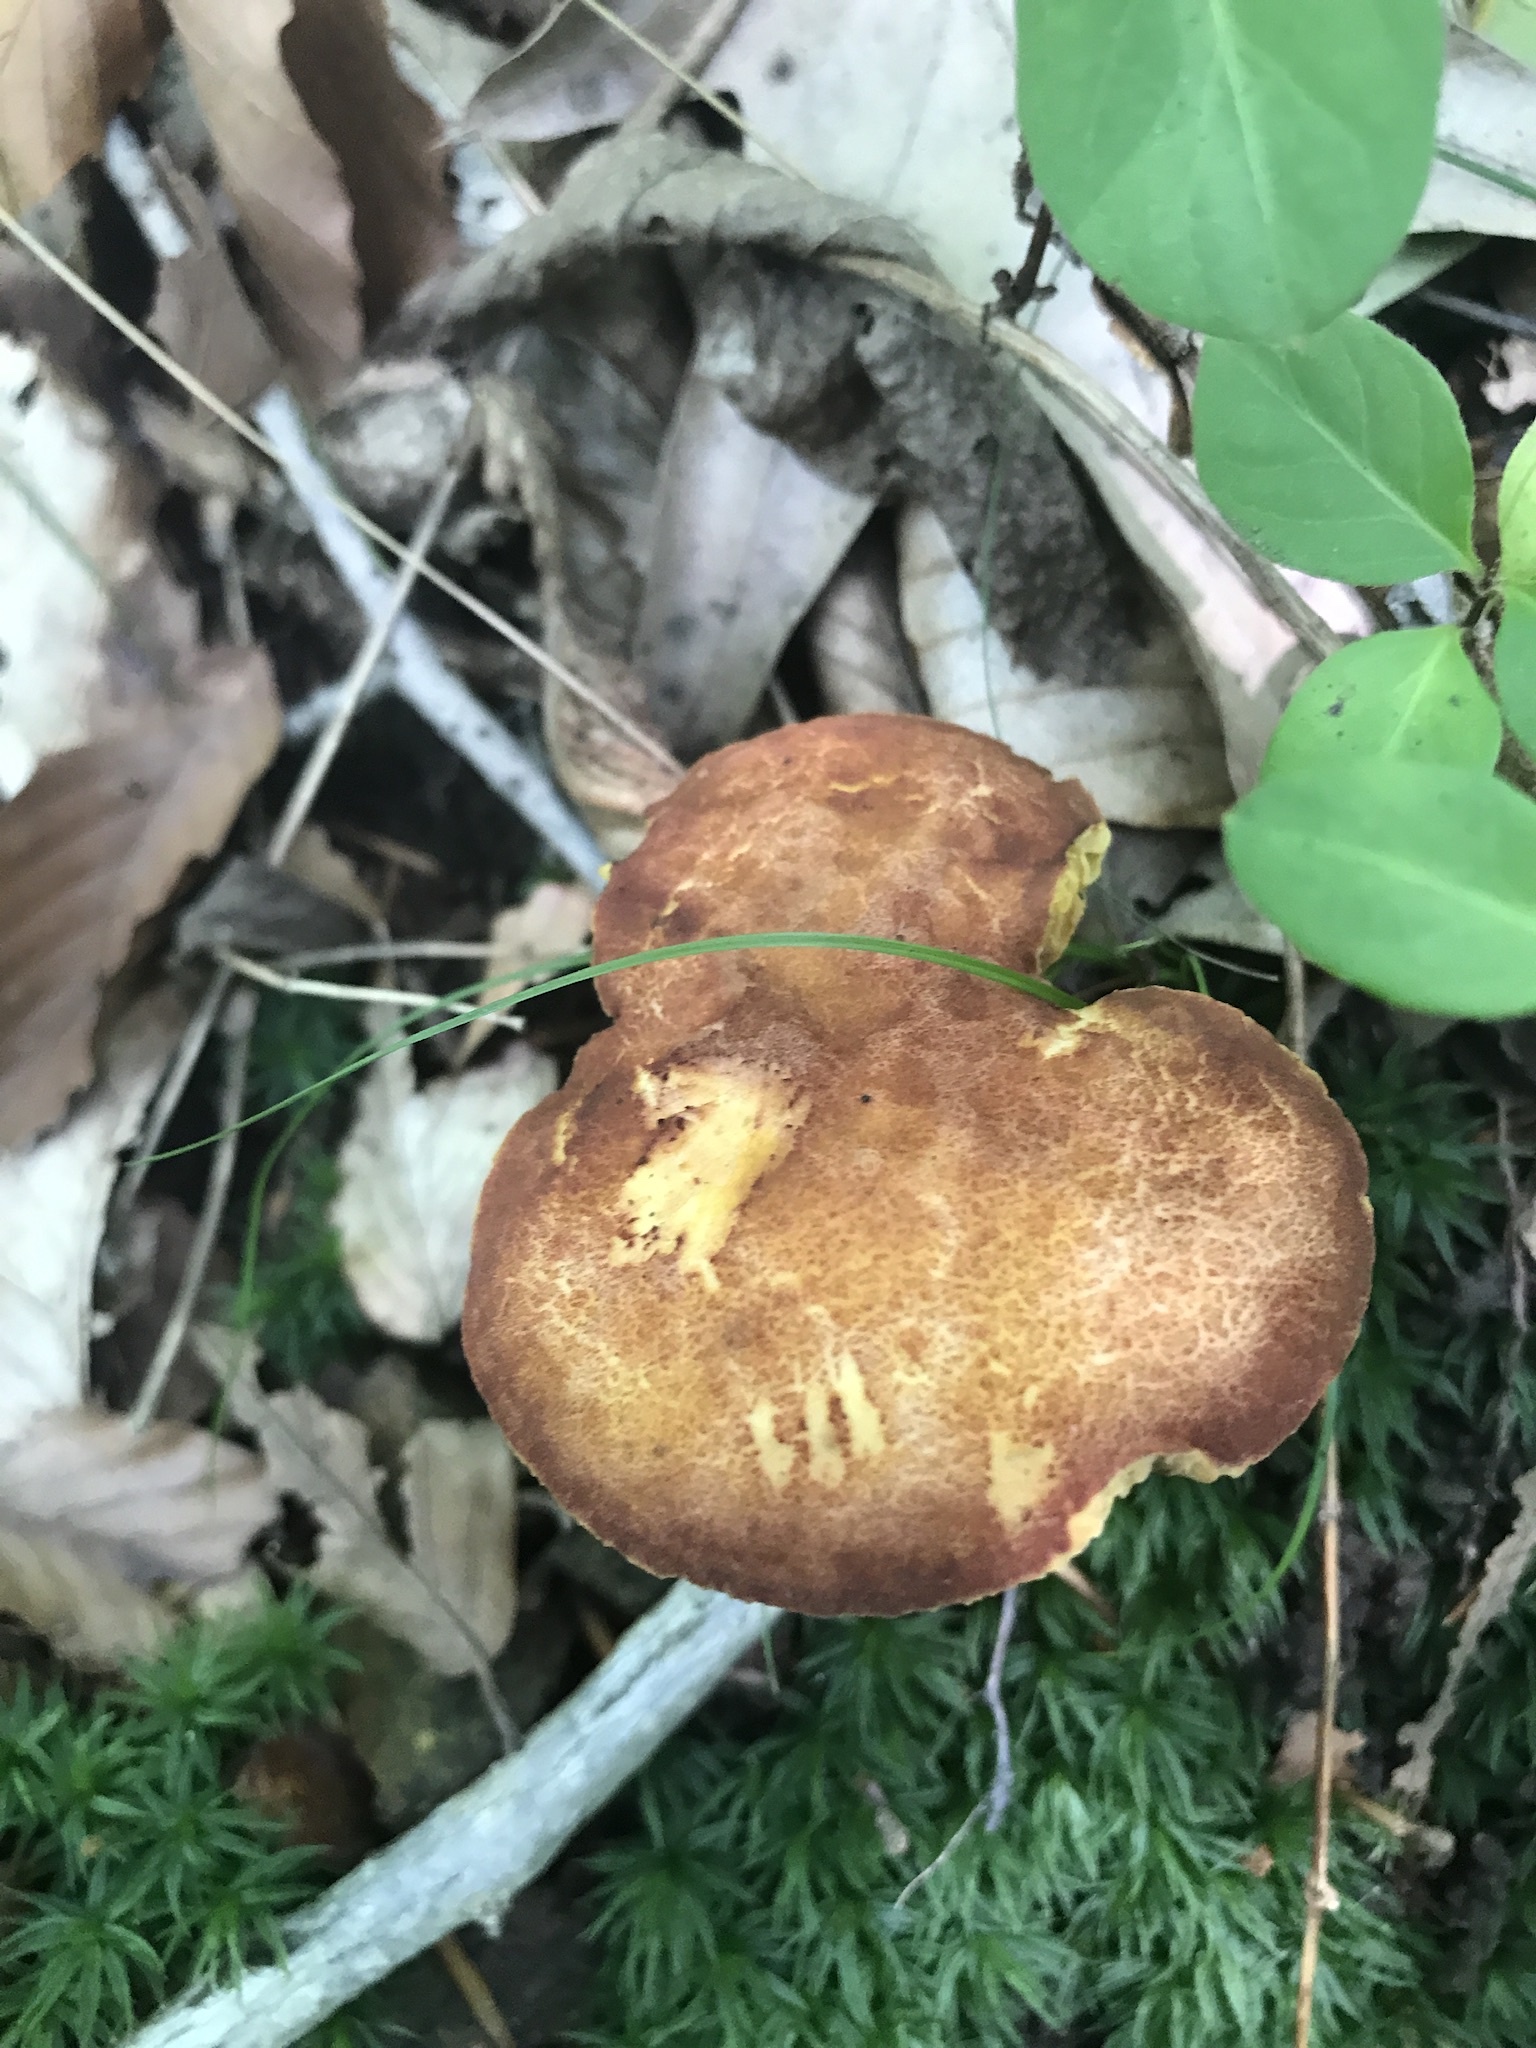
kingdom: Fungi
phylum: Basidiomycota
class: Agaricomycetes
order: Boletales
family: Boletaceae
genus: Phylloporus
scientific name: Phylloporus rhodoxanthus
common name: Golden gilled bolete
